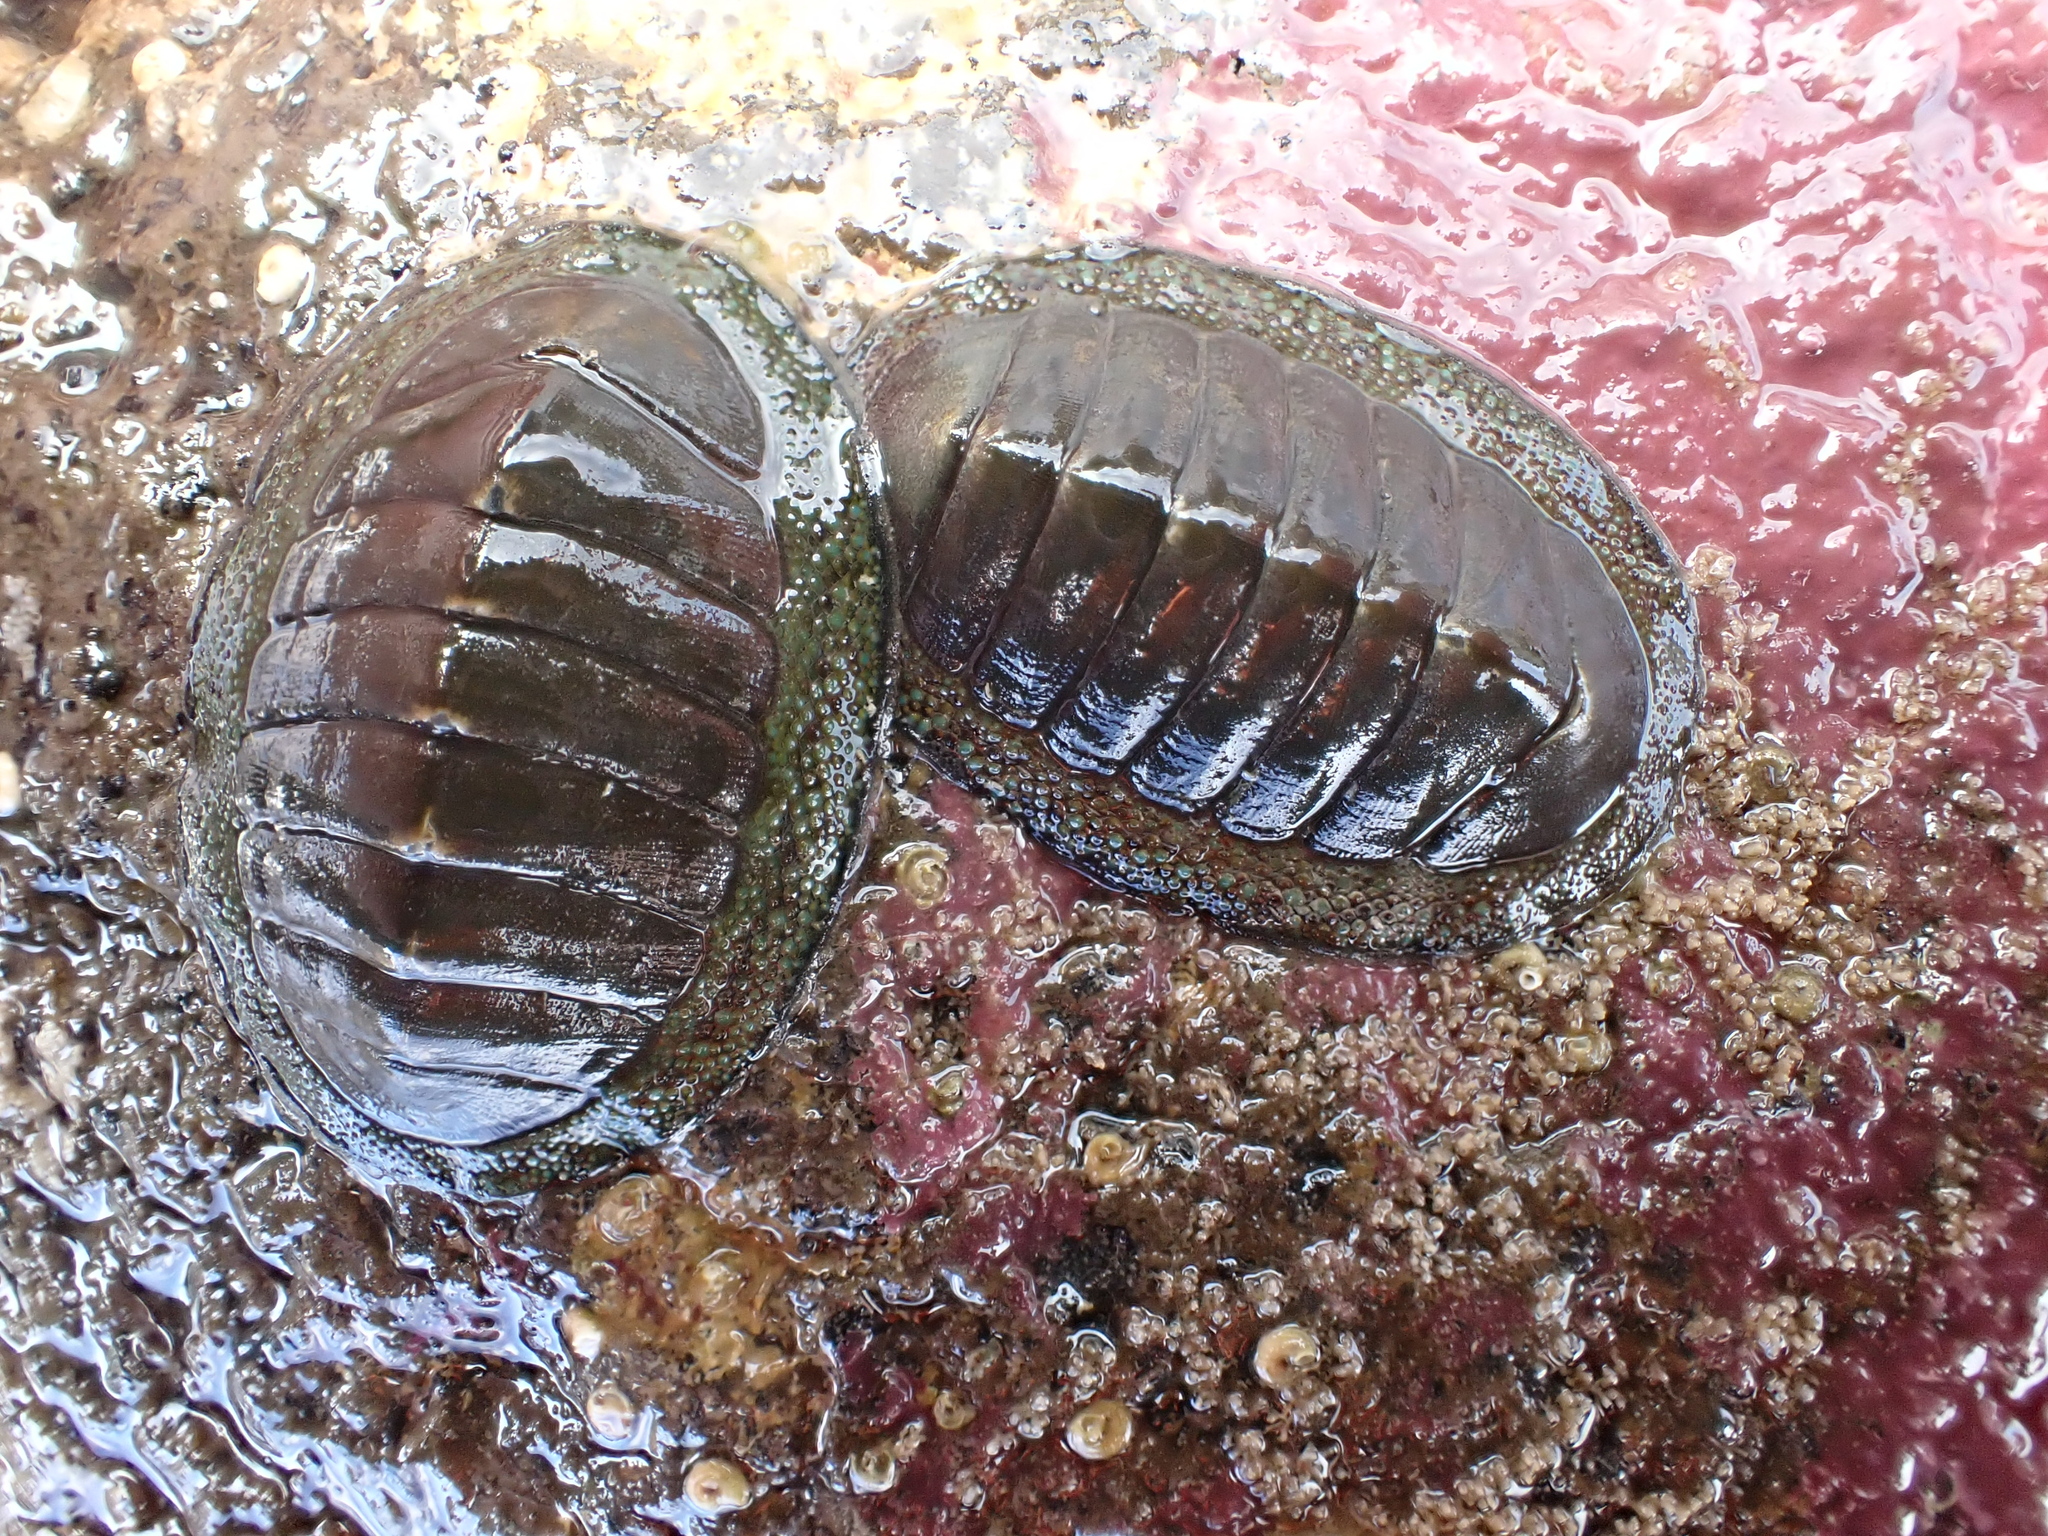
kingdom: Animalia
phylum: Mollusca
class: Polyplacophora
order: Chitonida
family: Chitonidae
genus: Chiton
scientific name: Chiton glaucus
